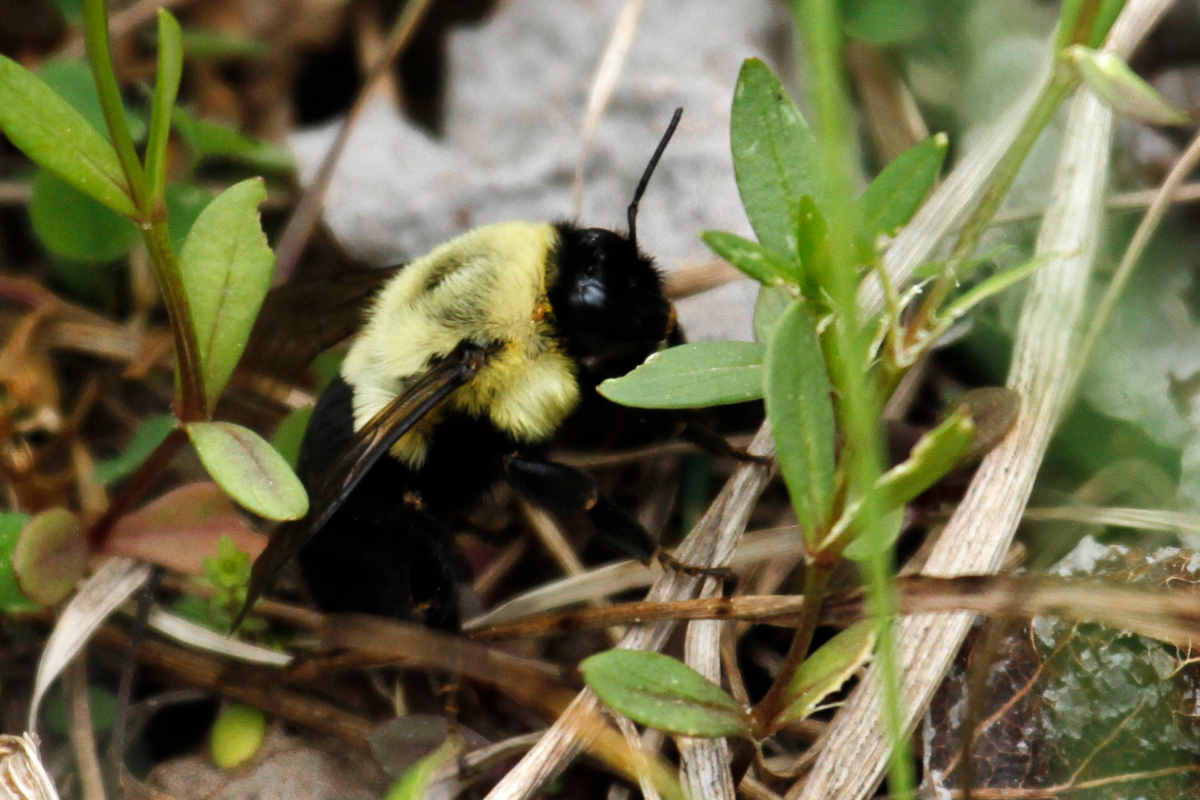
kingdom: Animalia
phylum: Arthropoda
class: Insecta
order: Hymenoptera
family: Apidae
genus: Bombus
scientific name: Bombus impatiens
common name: Common eastern bumble bee
